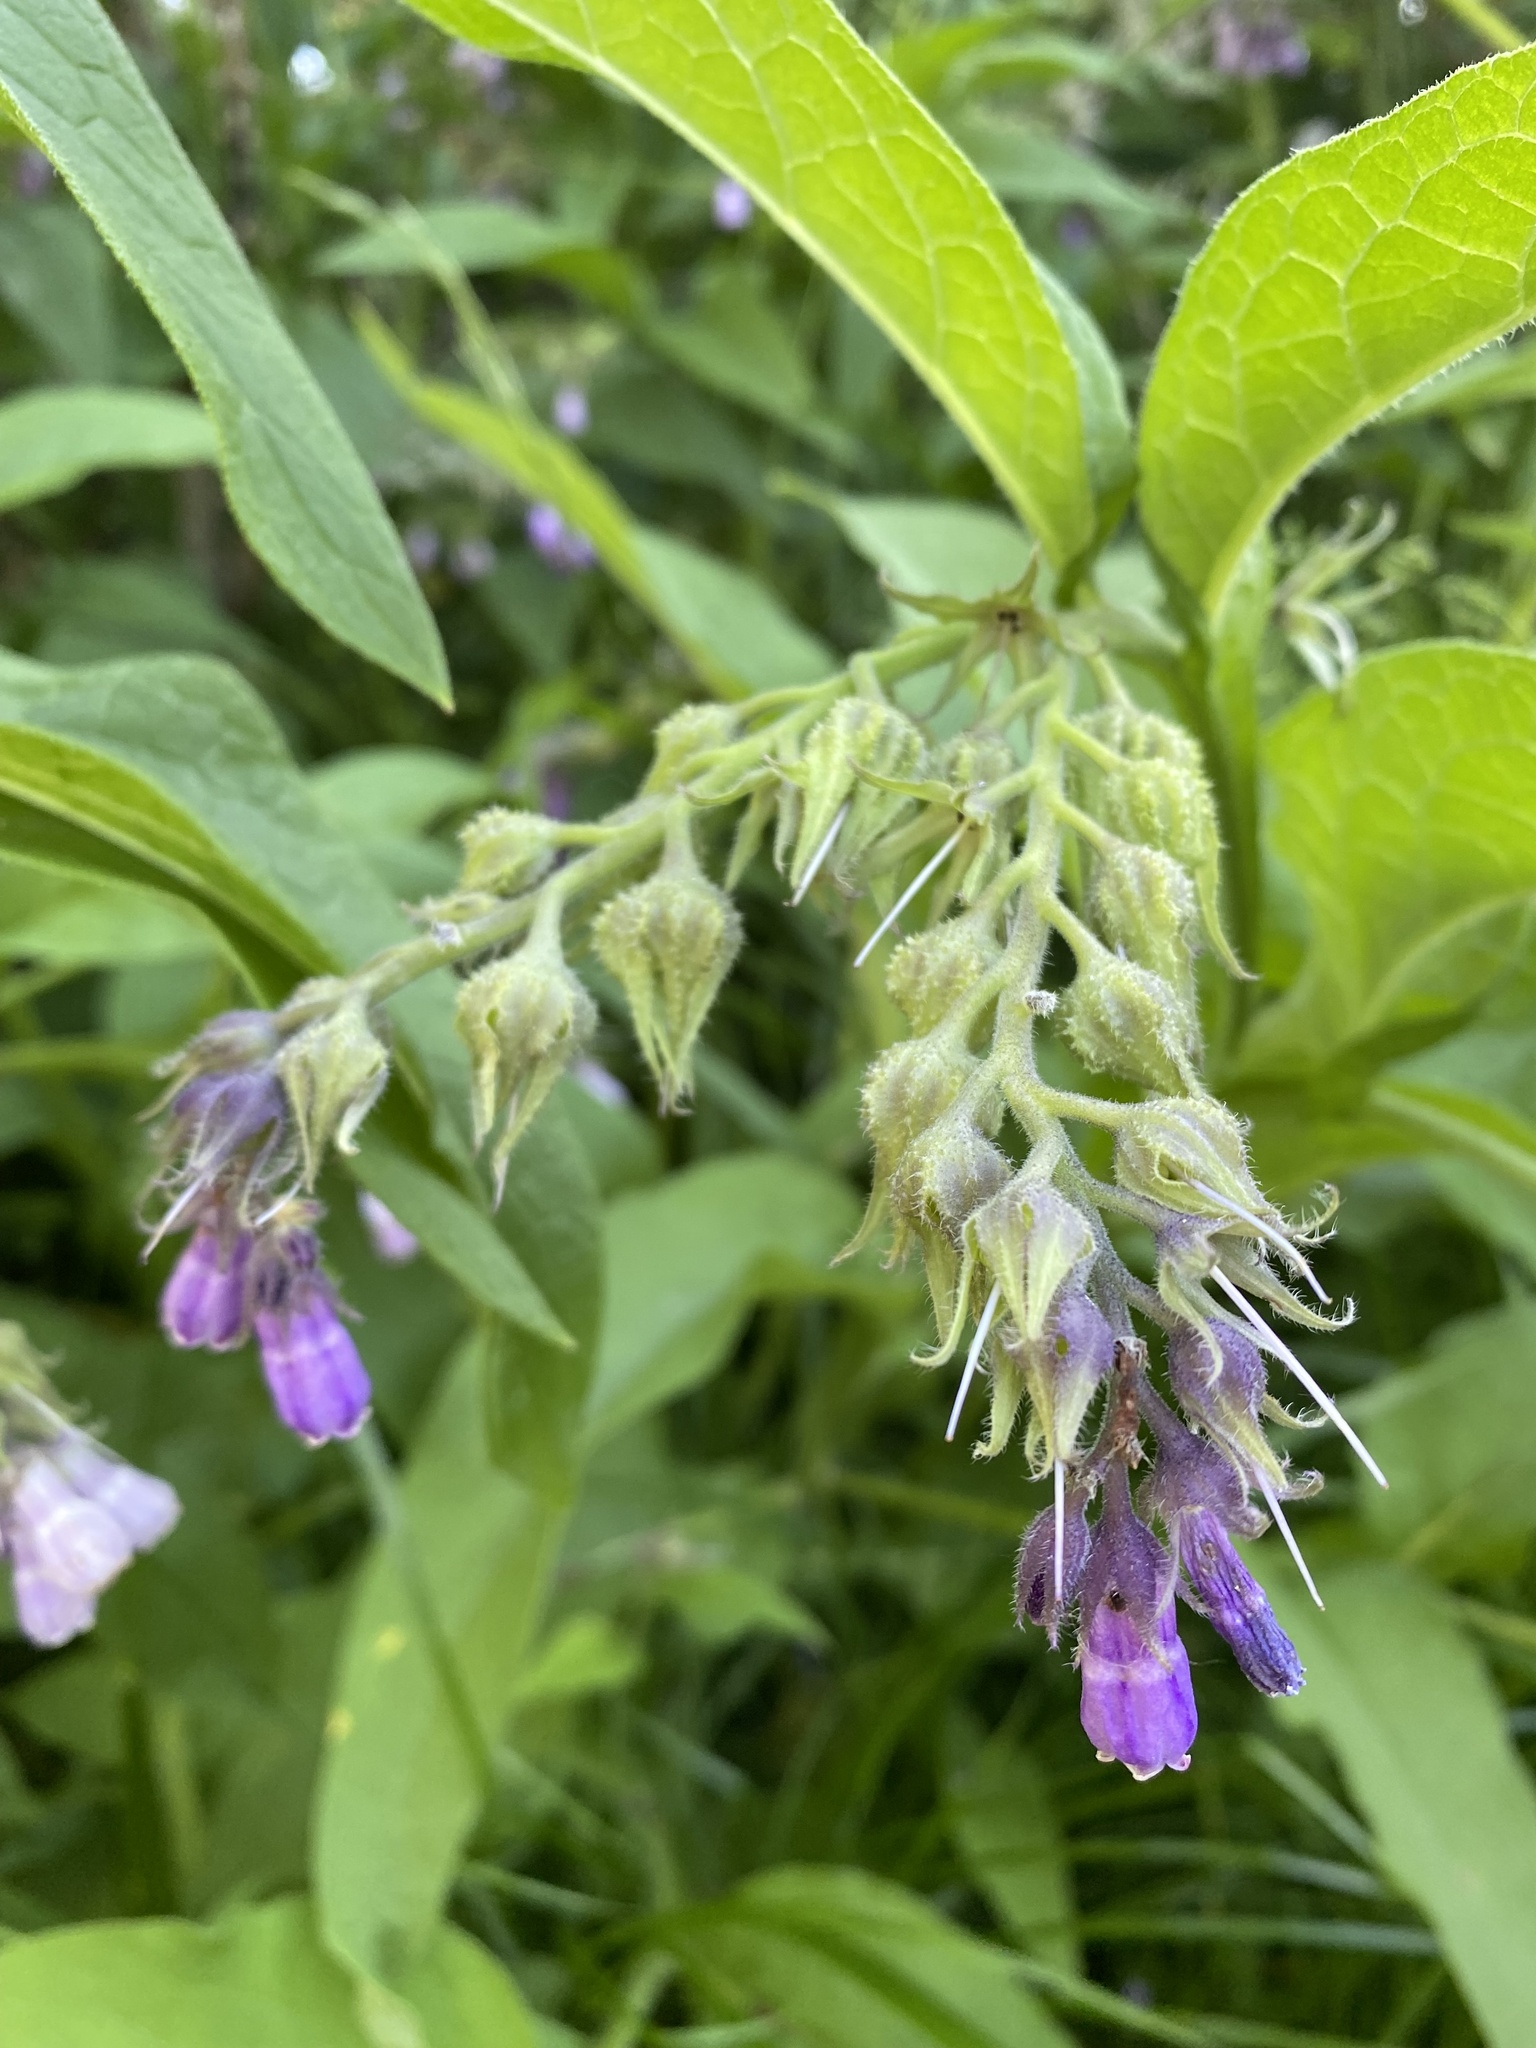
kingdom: Plantae
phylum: Tracheophyta
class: Magnoliopsida
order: Boraginales
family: Boraginaceae
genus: Symphytum
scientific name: Symphytum officinale
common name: Common comfrey
